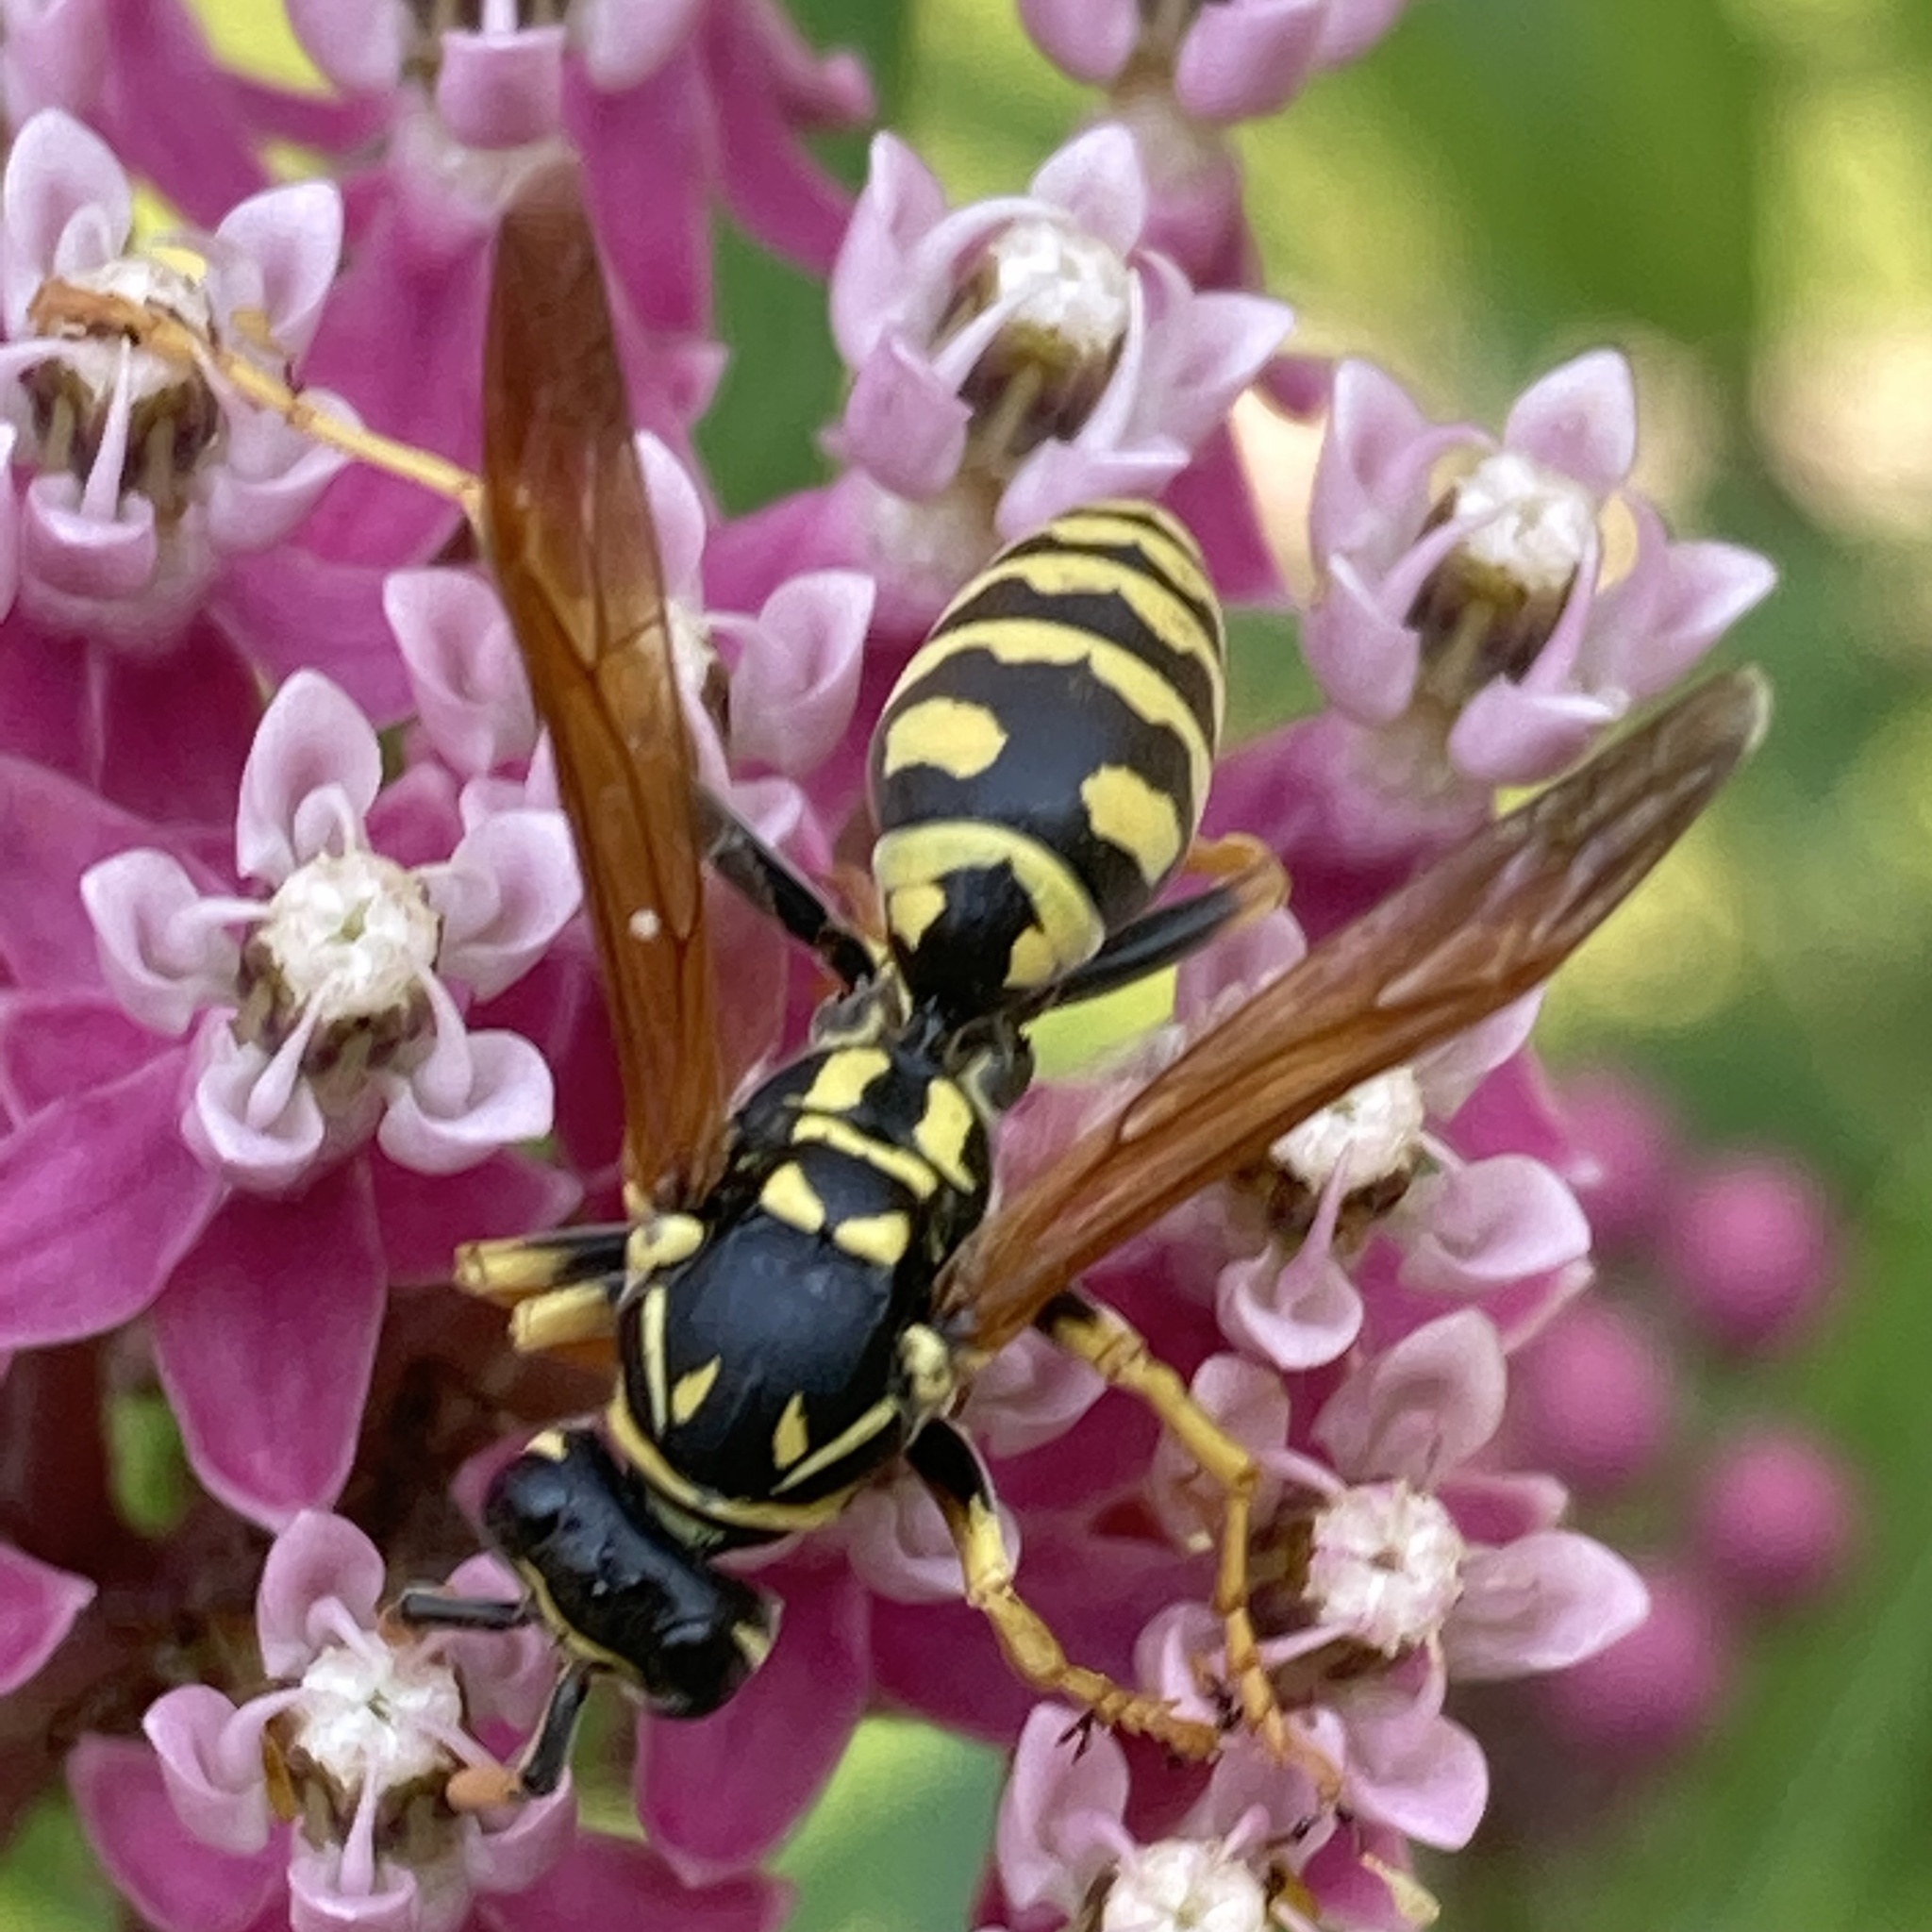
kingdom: Animalia
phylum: Arthropoda
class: Insecta
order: Hymenoptera
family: Eumenidae
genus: Polistes
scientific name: Polistes dominula
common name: Paper wasp
